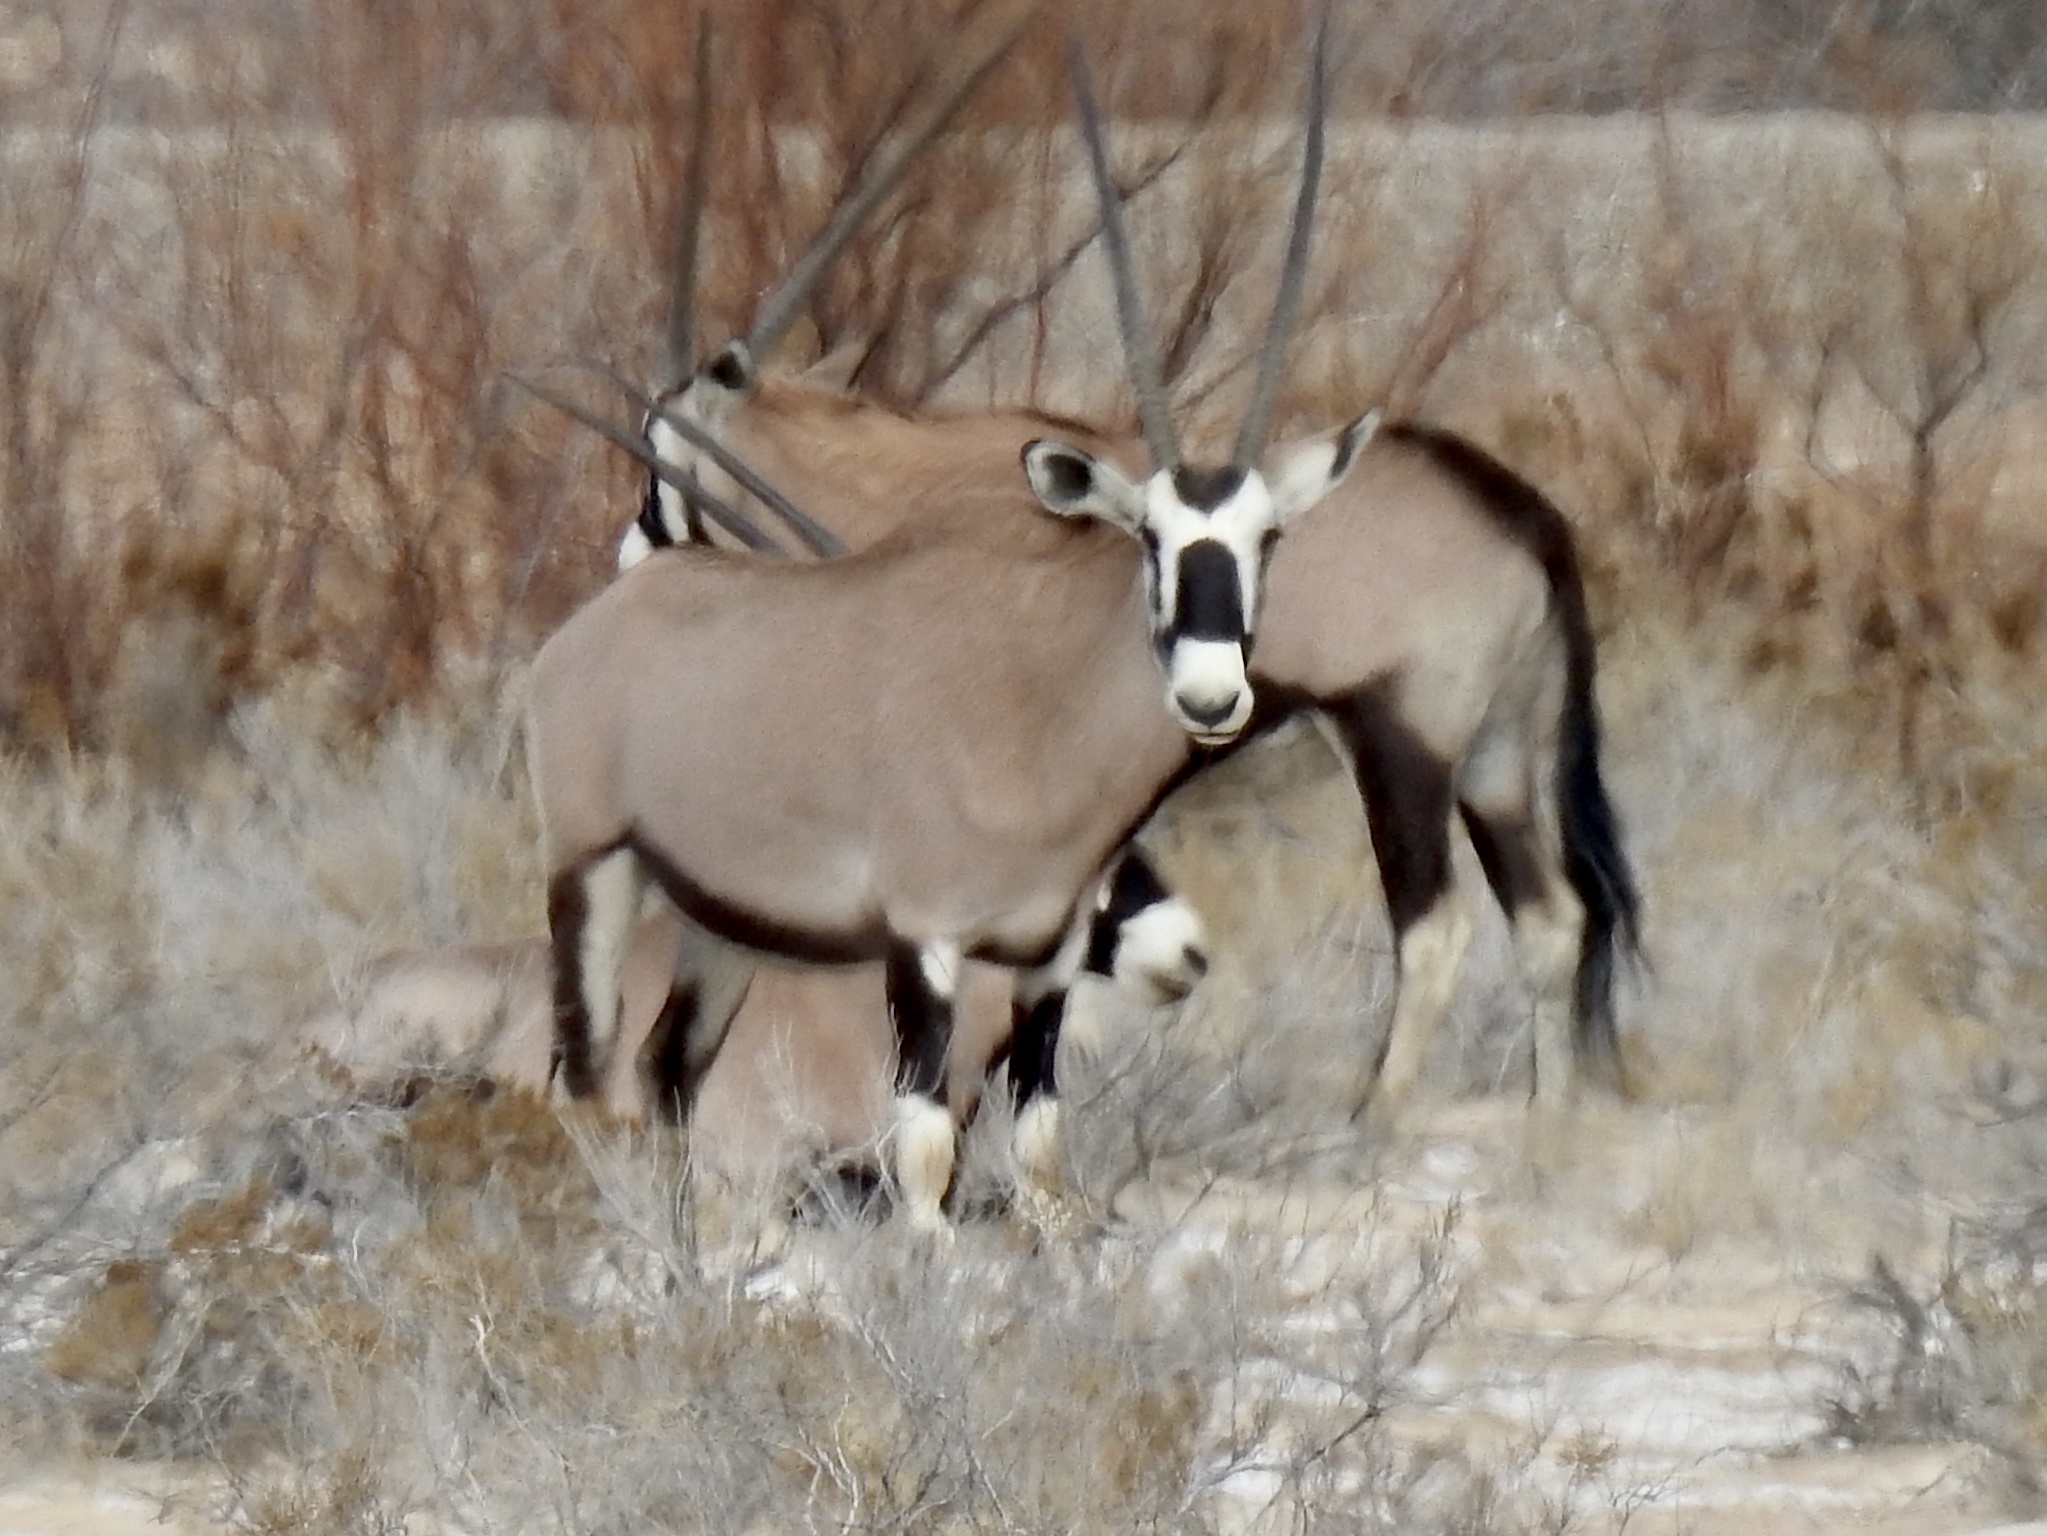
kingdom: Animalia
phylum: Chordata
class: Mammalia
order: Artiodactyla
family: Bovidae
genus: Oryx
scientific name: Oryx gazella
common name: Gemsbok
